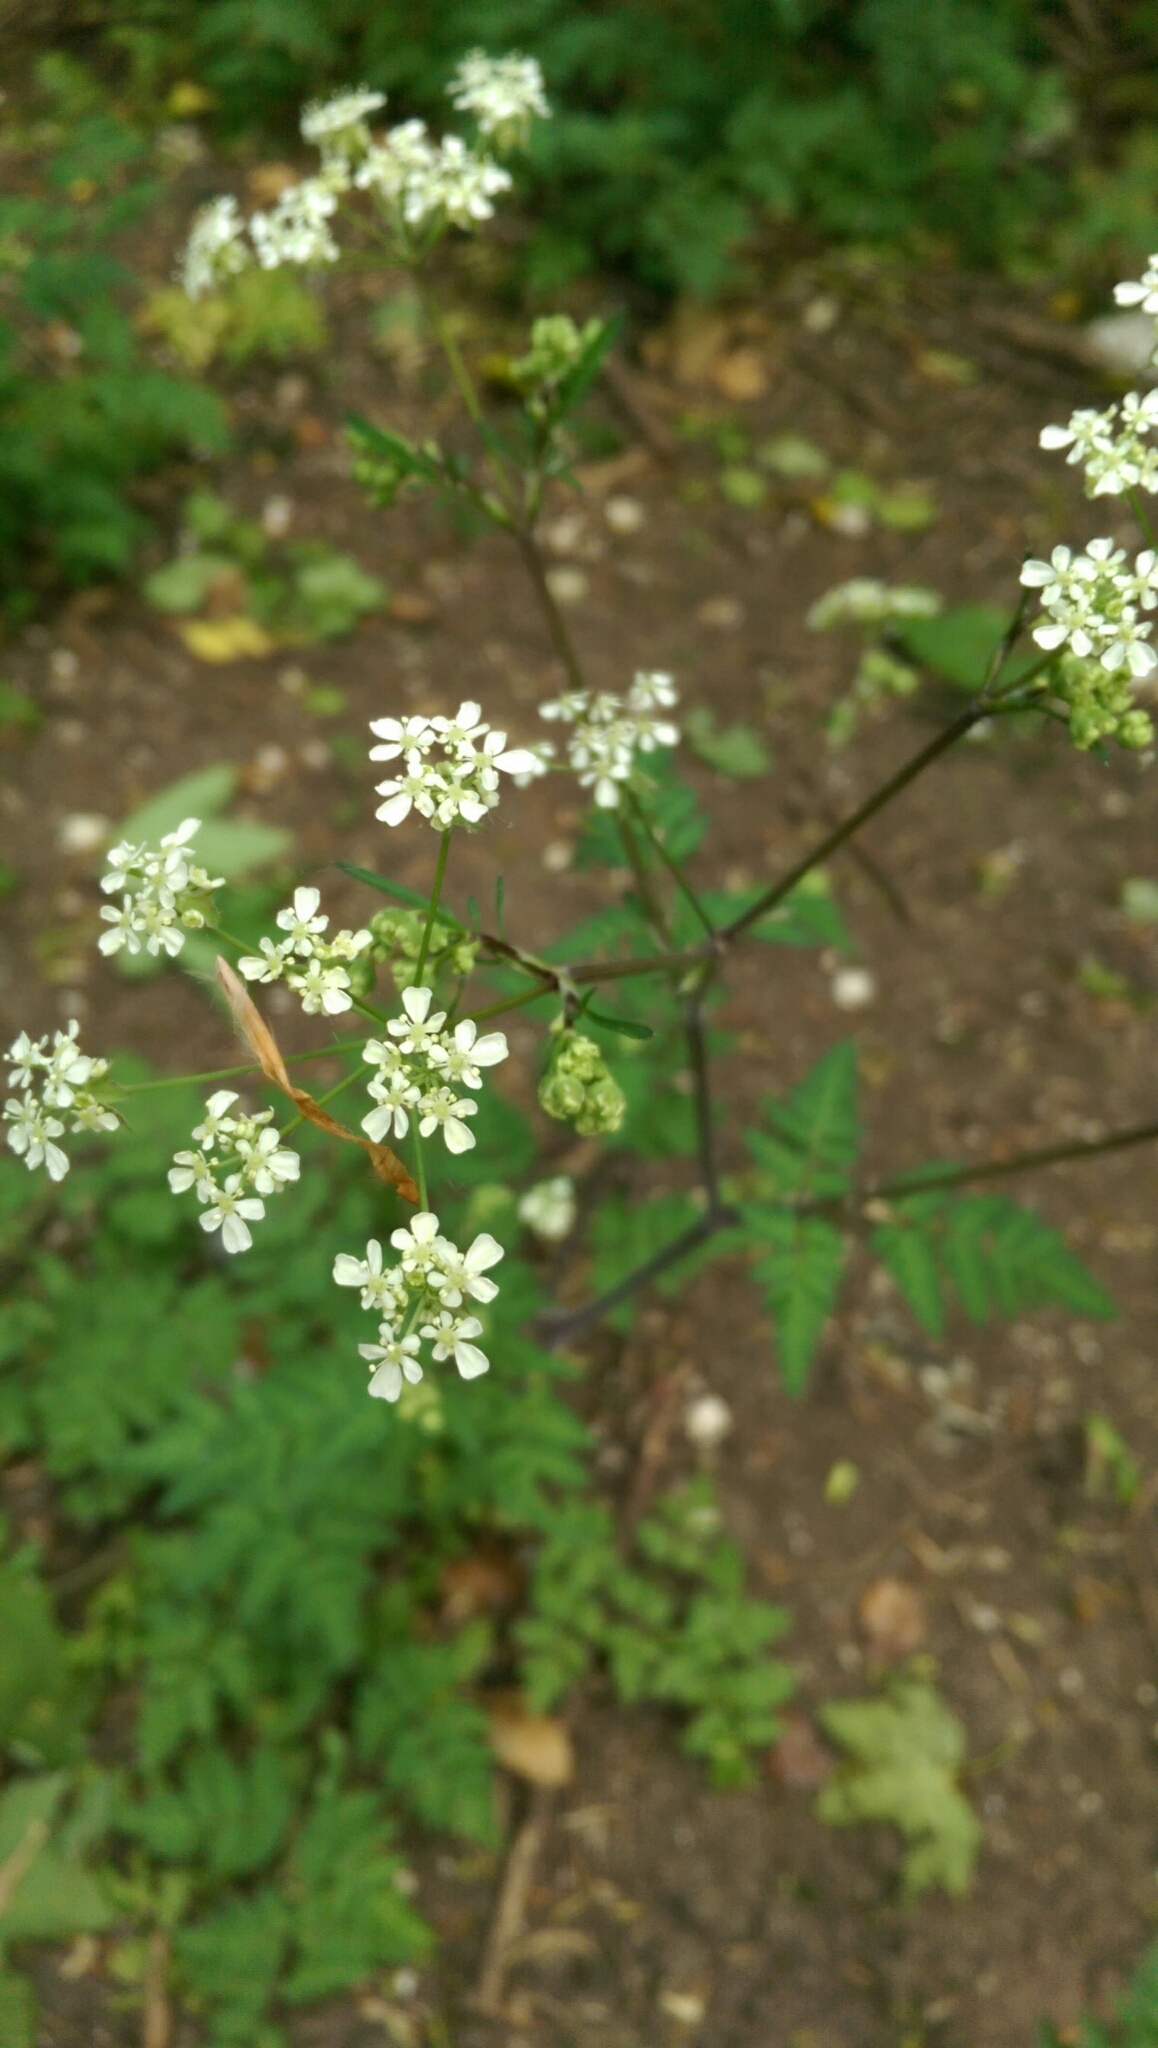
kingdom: Plantae
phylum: Tracheophyta
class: Magnoliopsida
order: Apiales
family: Apiaceae
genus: Anthriscus
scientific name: Anthriscus sylvestris
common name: Cow parsley
